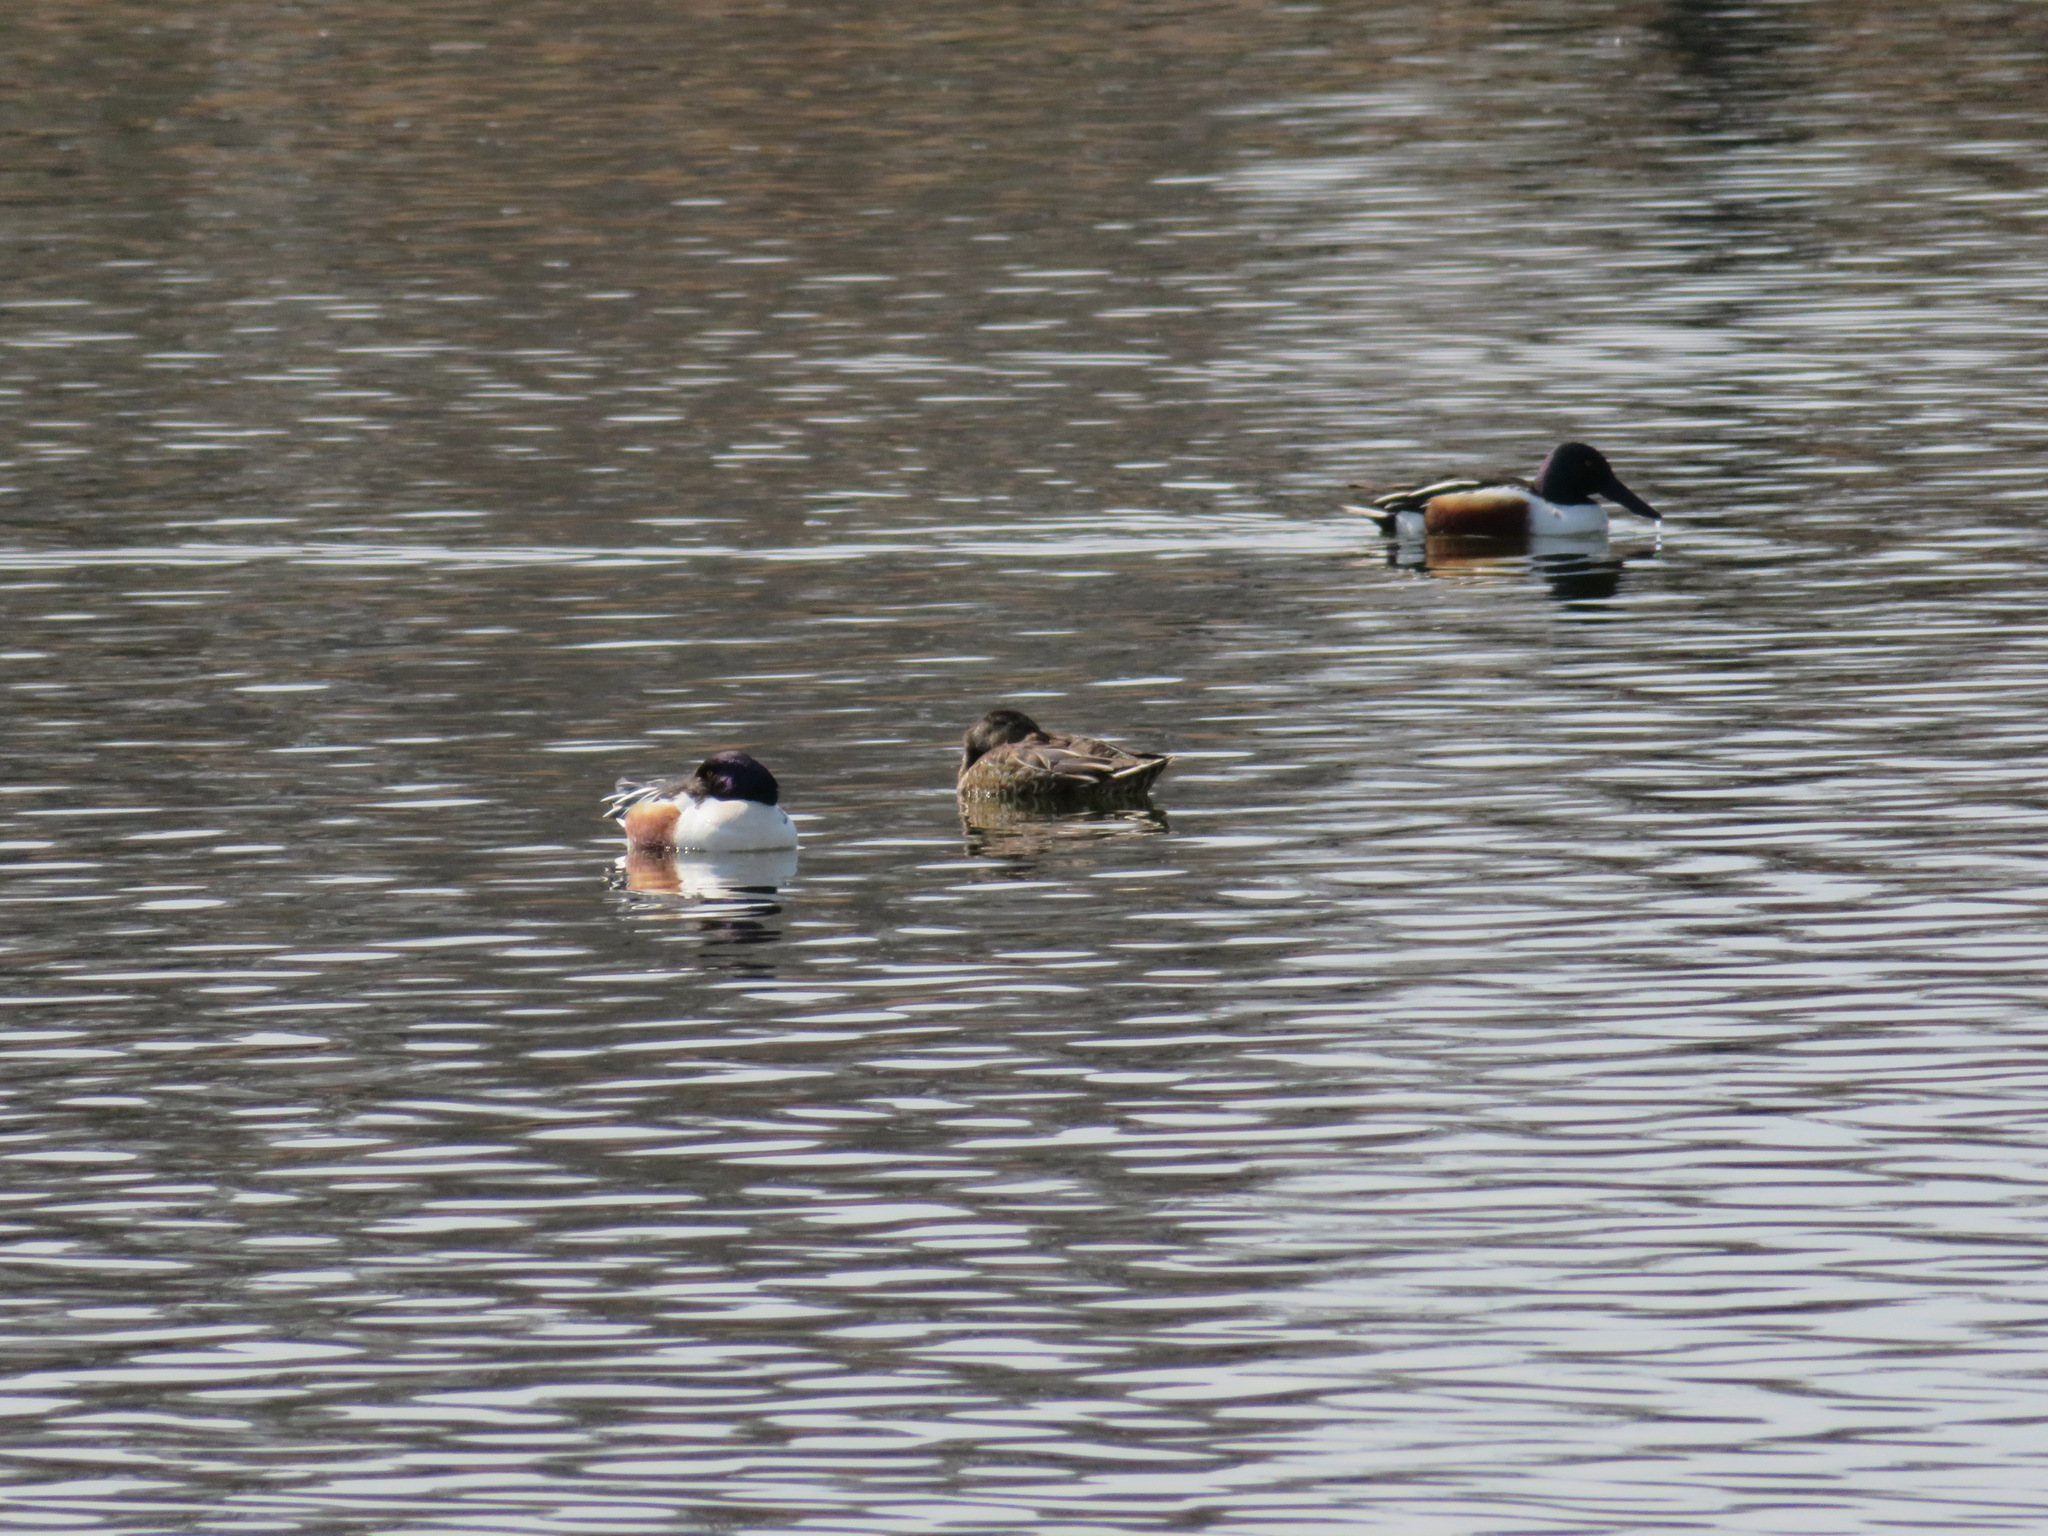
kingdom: Animalia
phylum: Chordata
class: Aves
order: Anseriformes
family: Anatidae
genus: Spatula
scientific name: Spatula clypeata
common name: Northern shoveler
